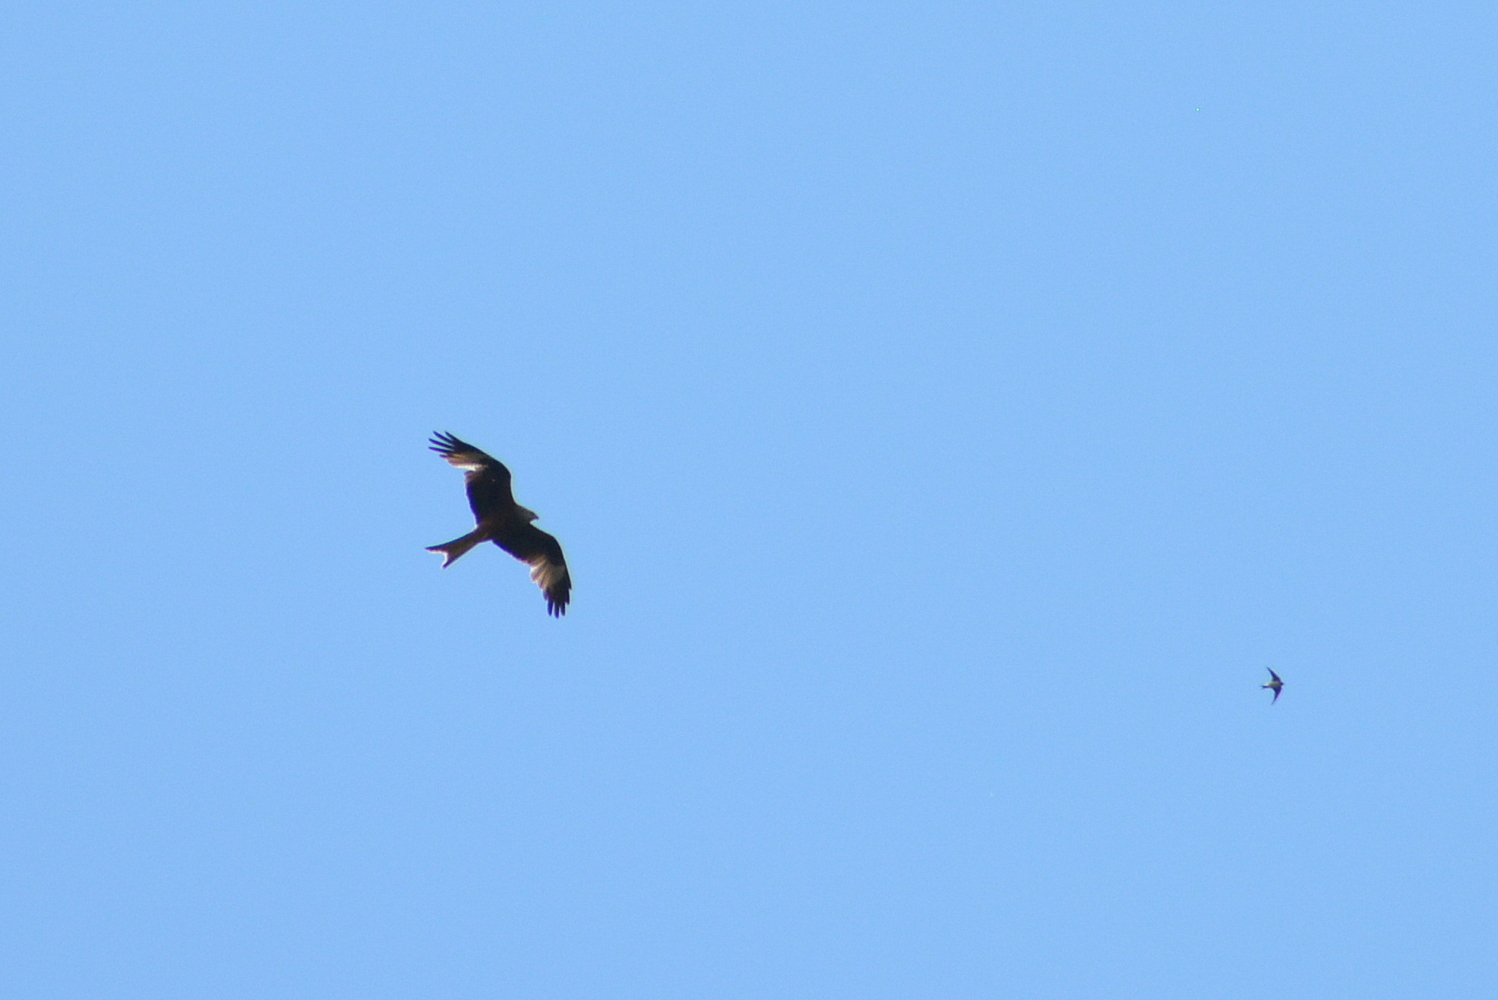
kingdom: Animalia
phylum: Chordata
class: Aves
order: Accipitriformes
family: Accipitridae
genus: Milvus
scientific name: Milvus milvus
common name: Red kite
